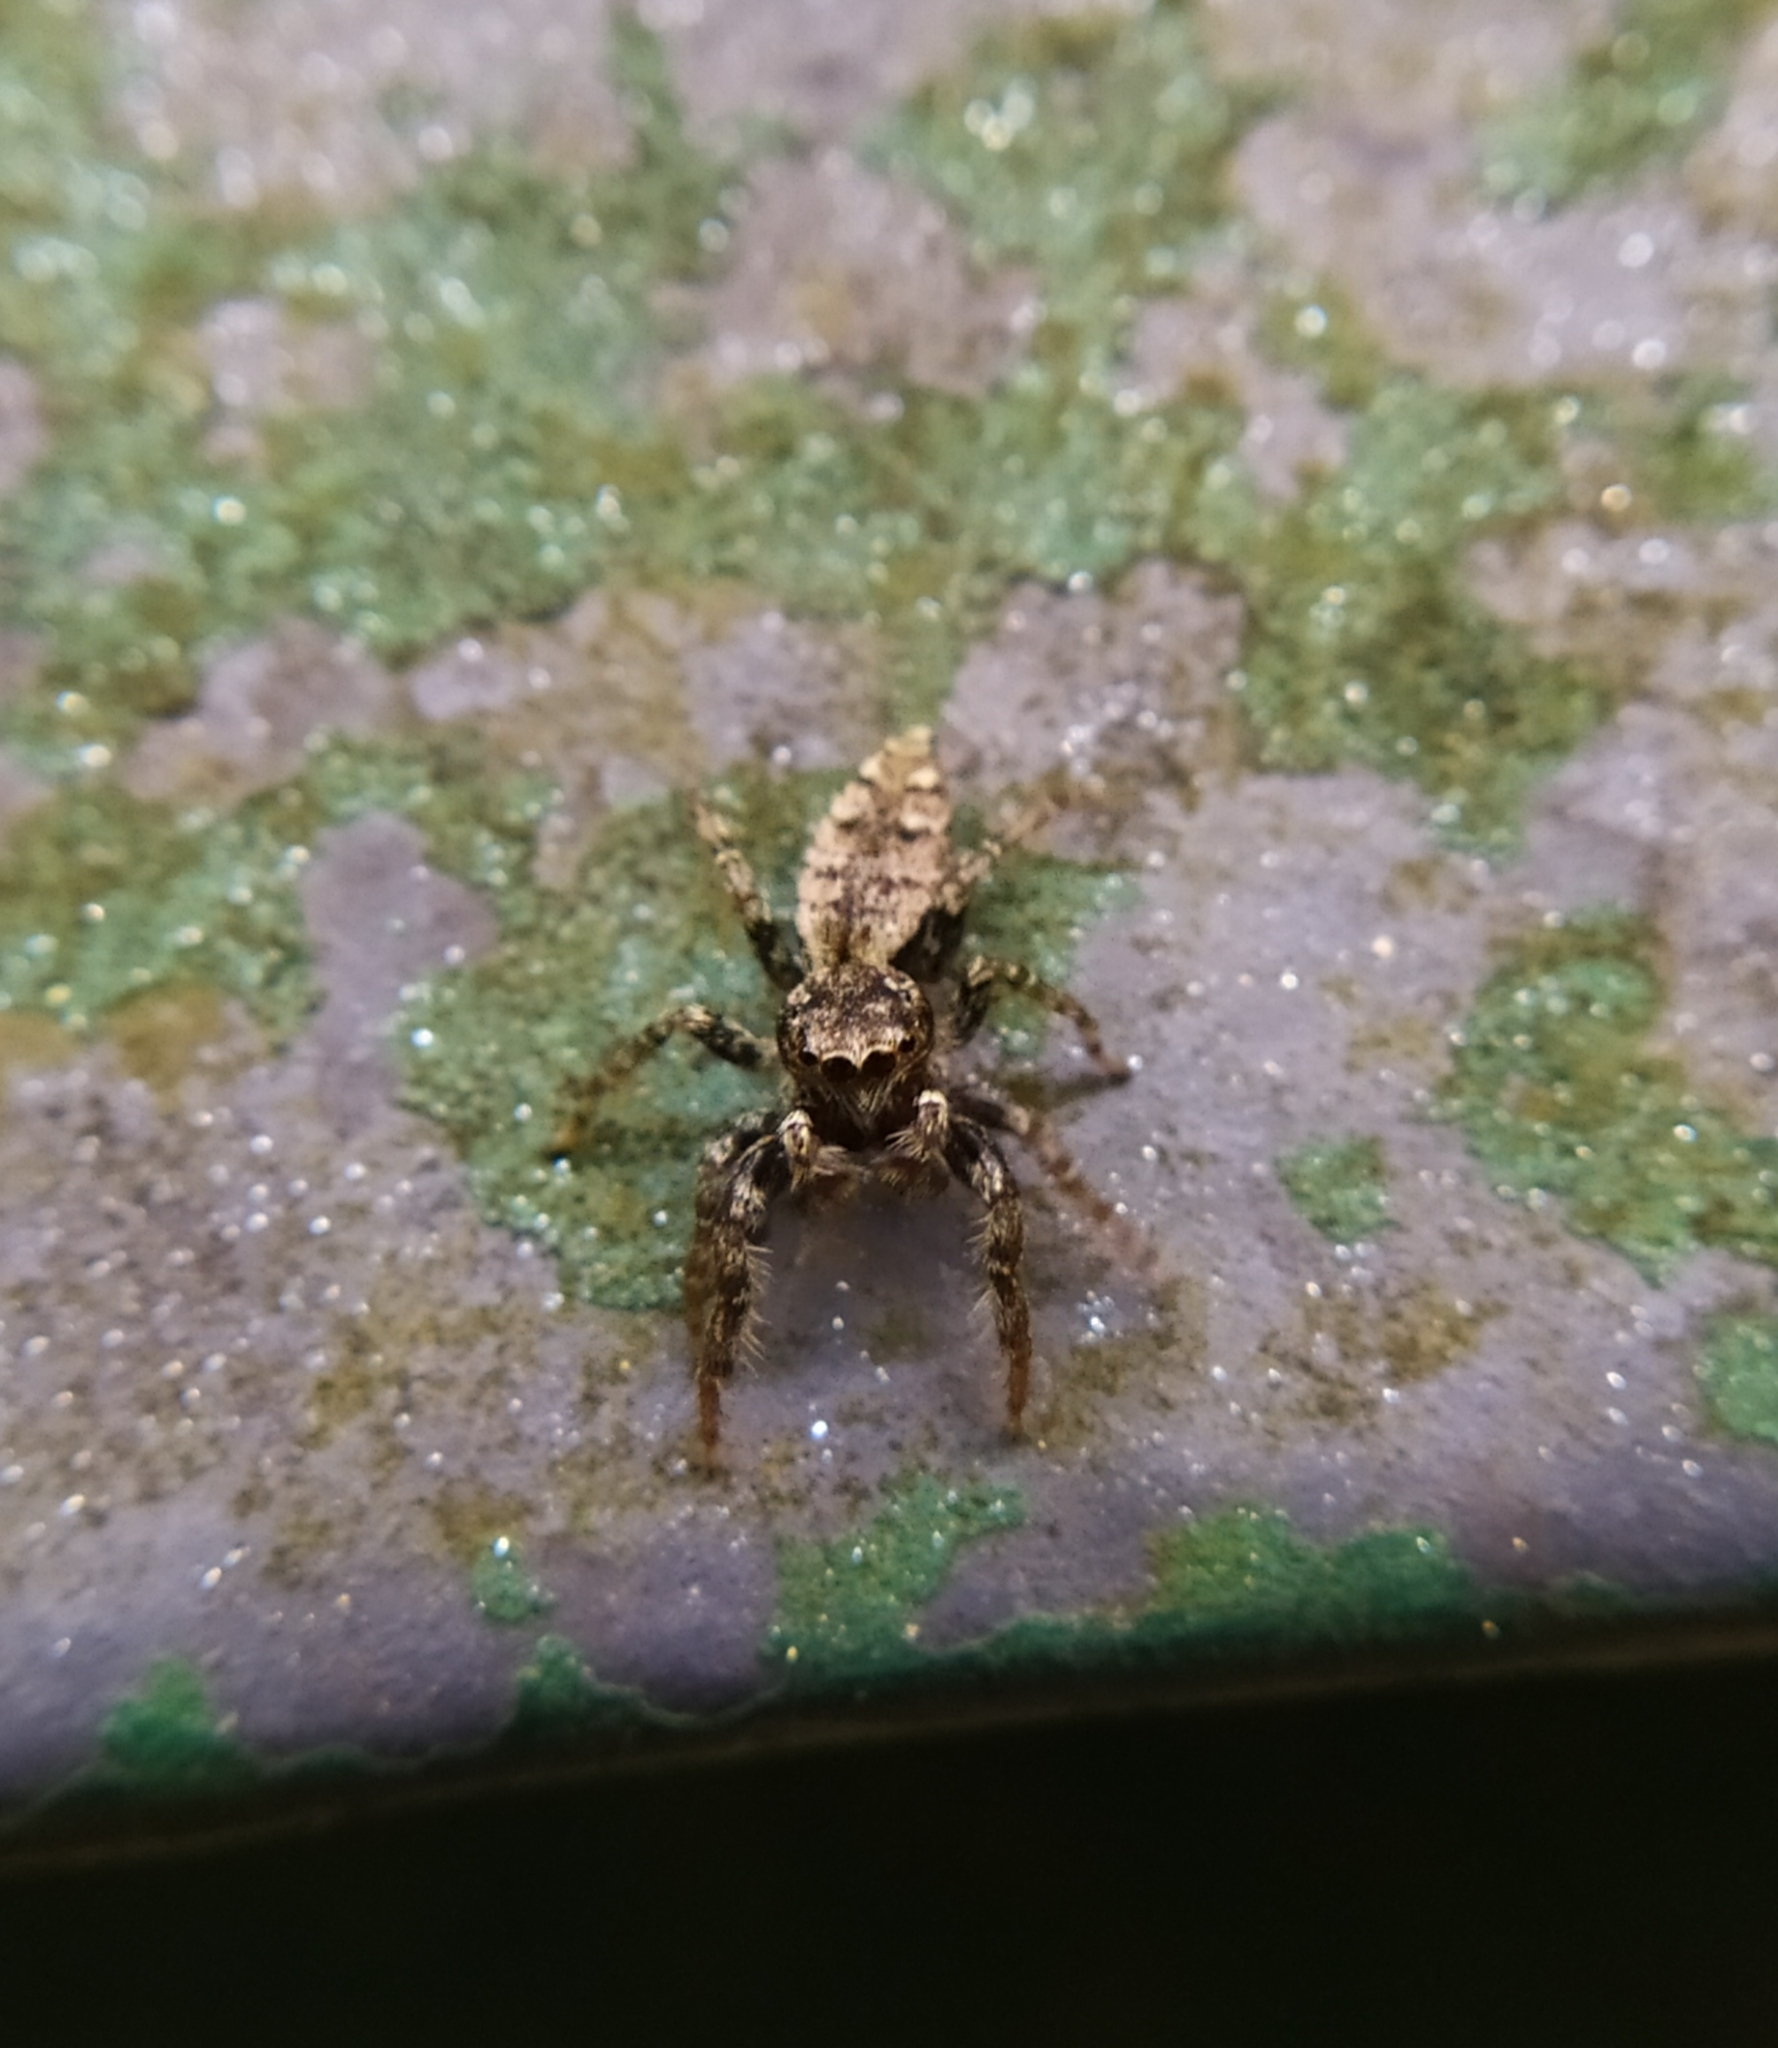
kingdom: Animalia
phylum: Arthropoda
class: Arachnida
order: Araneae
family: Salticidae
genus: Marpissa
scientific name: Marpissa muscosa
